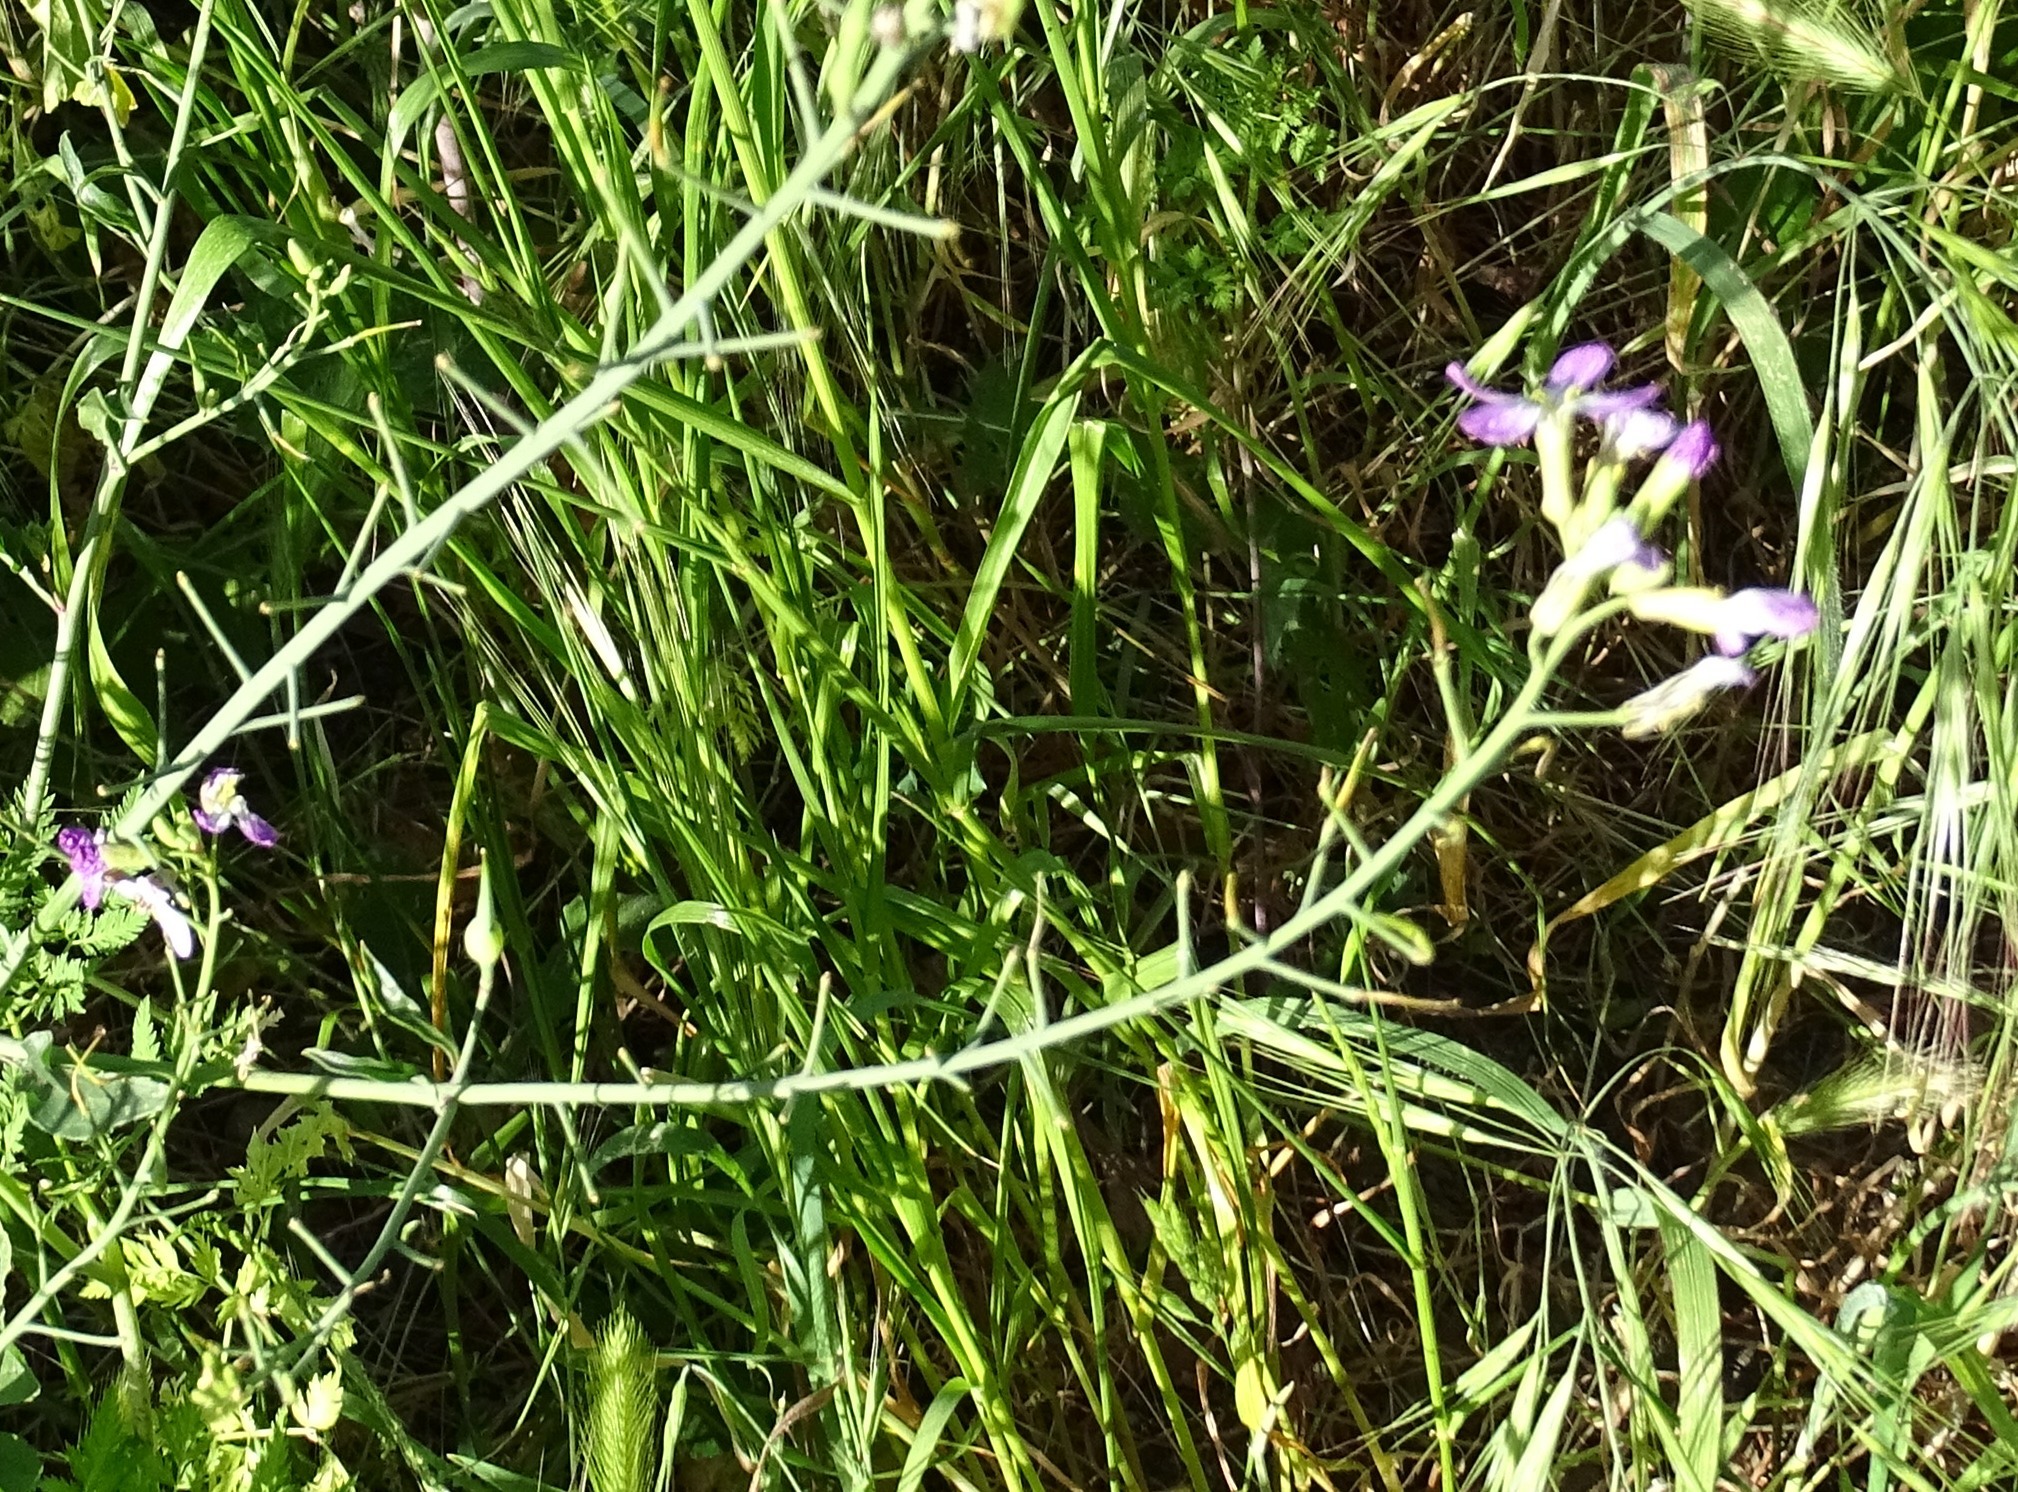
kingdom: Plantae
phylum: Tracheophyta
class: Magnoliopsida
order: Brassicales
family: Brassicaceae
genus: Raphanus
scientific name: Raphanus sativus
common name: Cultivated radish
